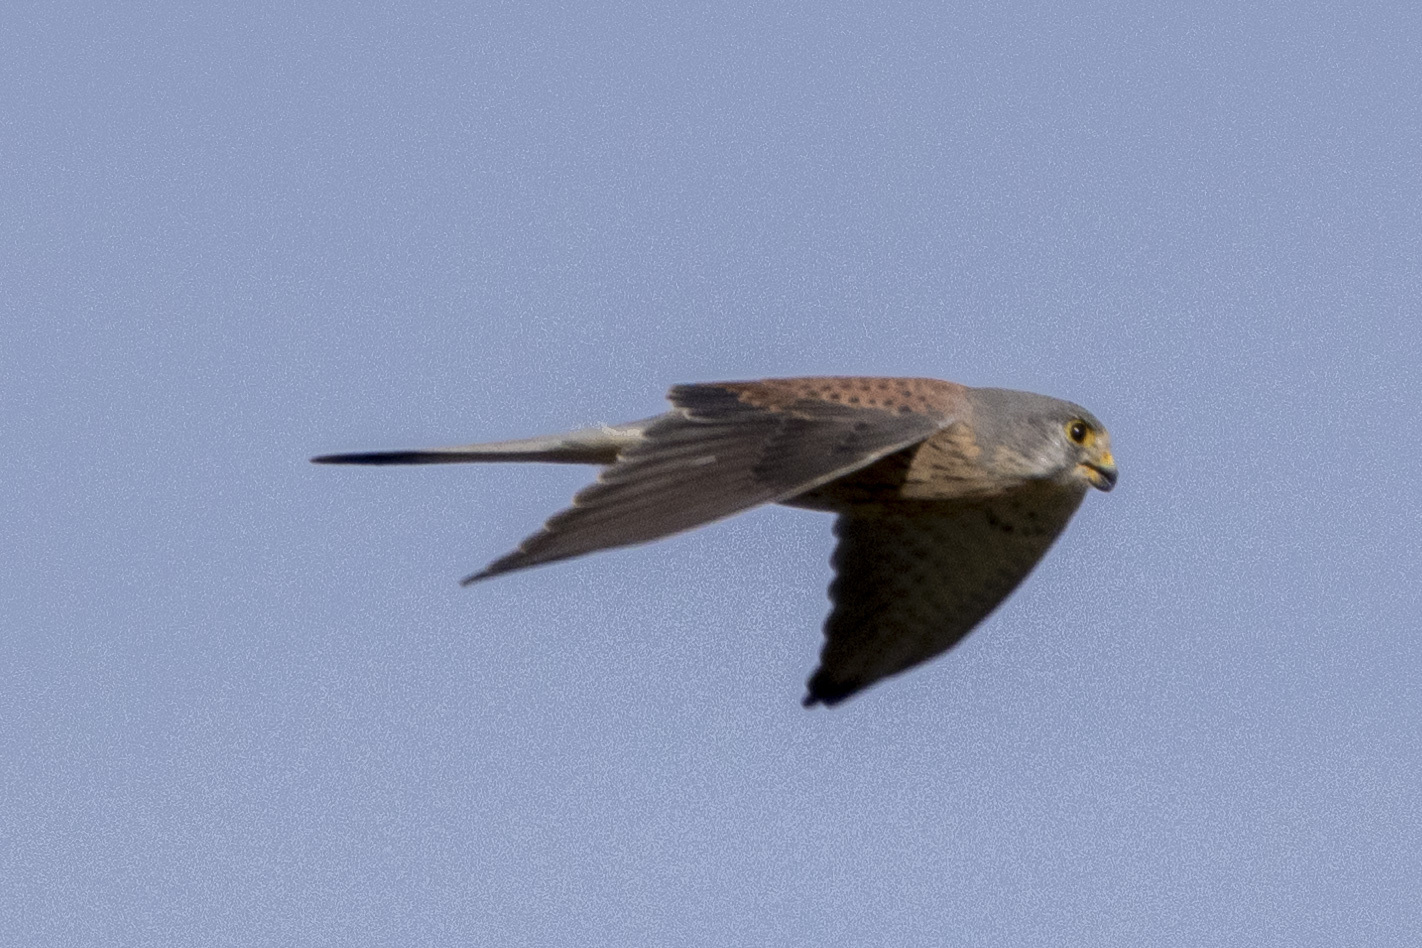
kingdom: Animalia
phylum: Chordata
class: Aves
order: Falconiformes
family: Falconidae
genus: Falco
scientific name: Falco tinnunculus
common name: Common kestrel
